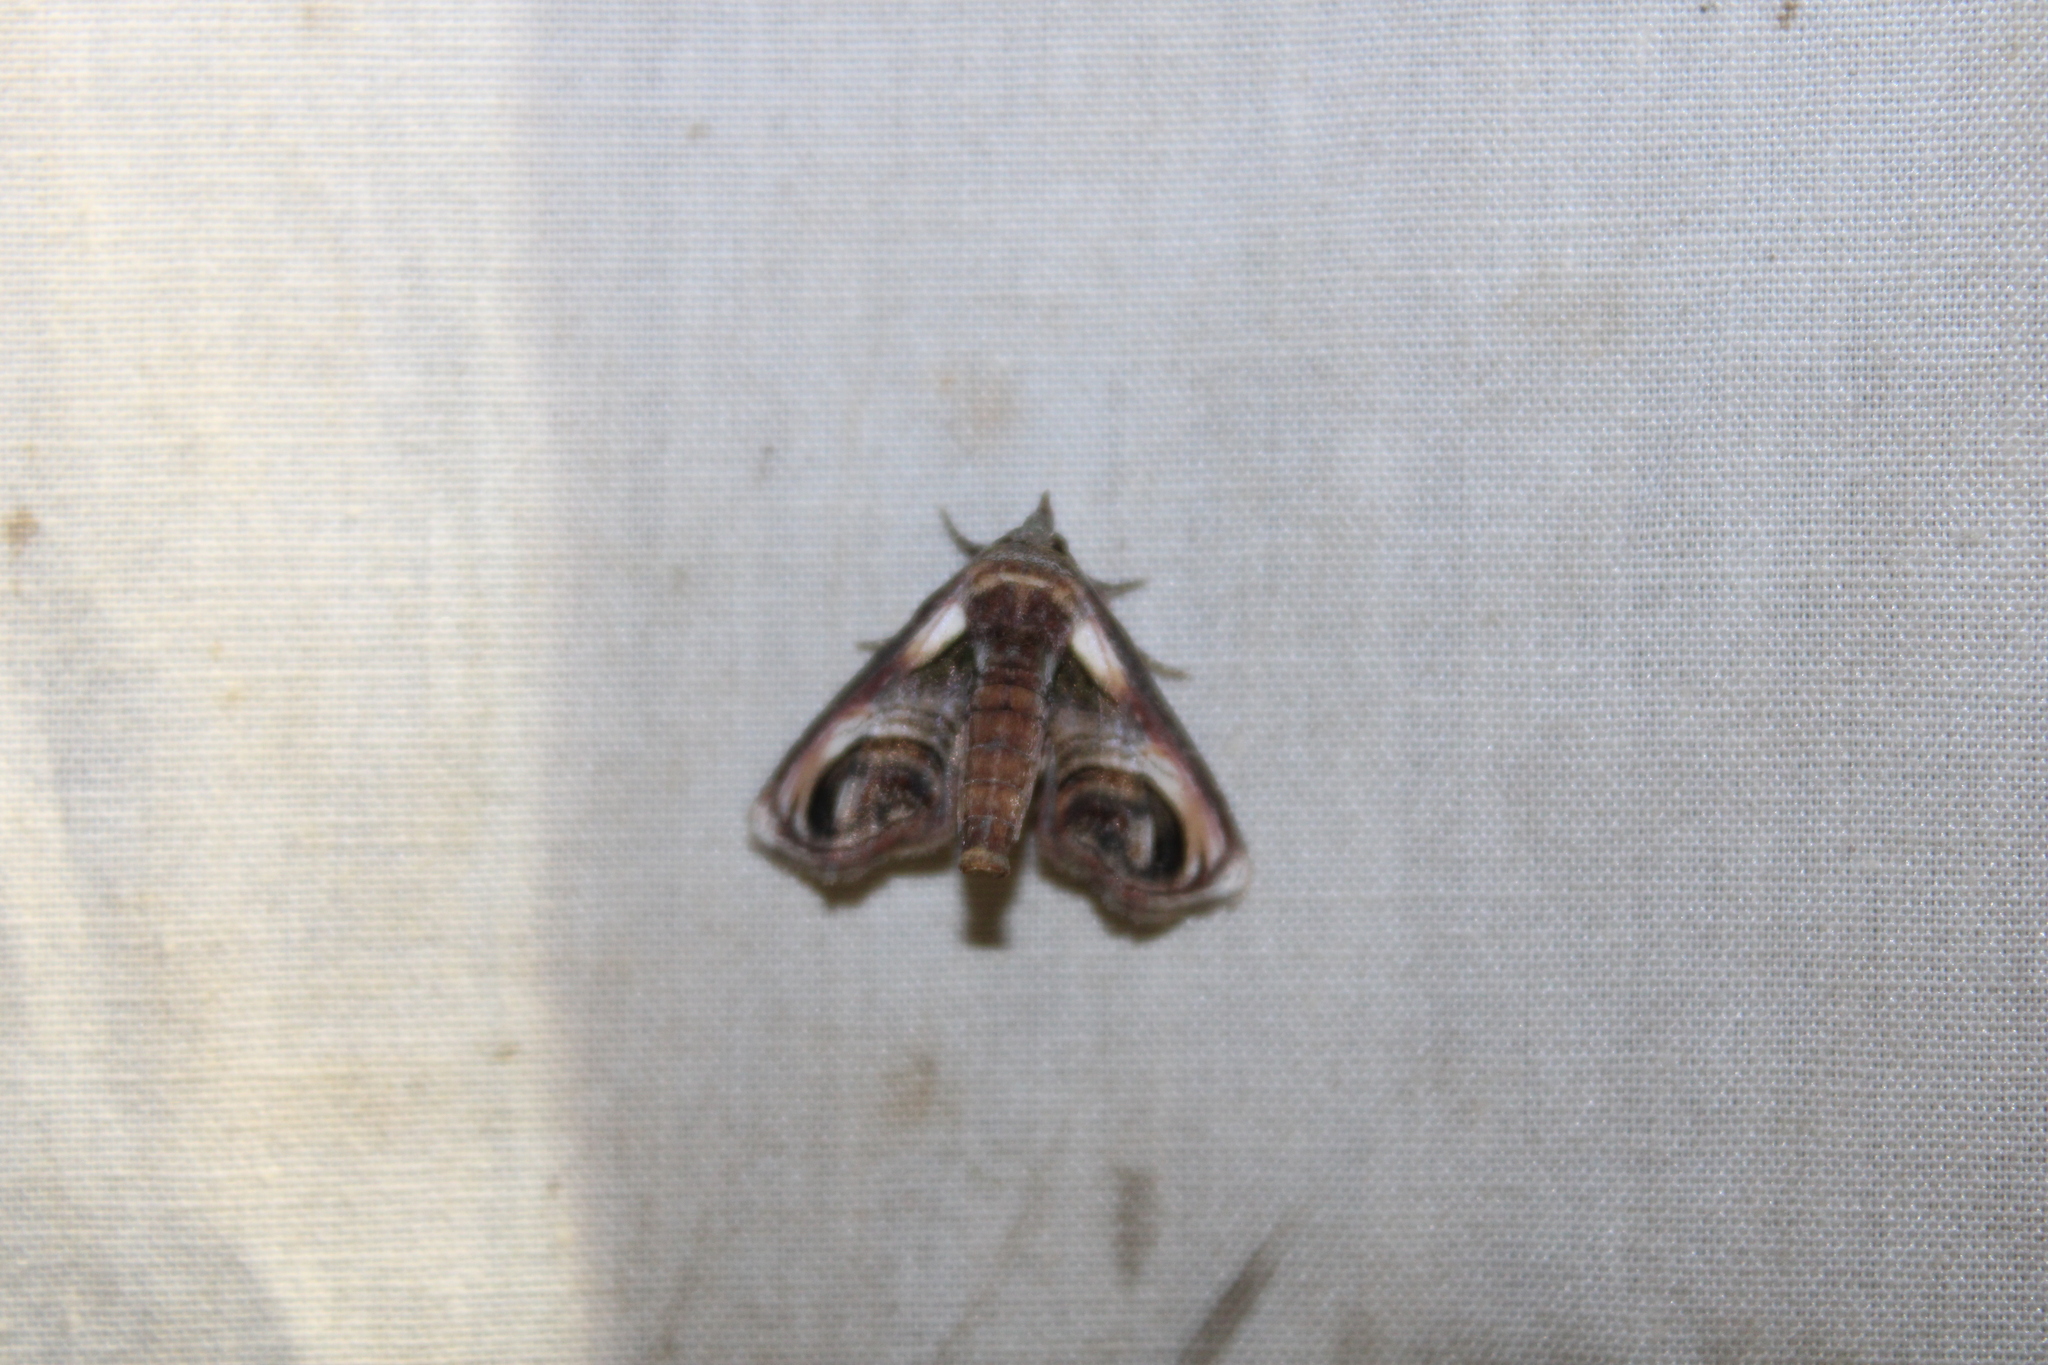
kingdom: Animalia
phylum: Arthropoda
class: Insecta
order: Lepidoptera
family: Euteliidae
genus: Paectes
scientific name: Paectes oculatrix
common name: Eyed paectes moth
